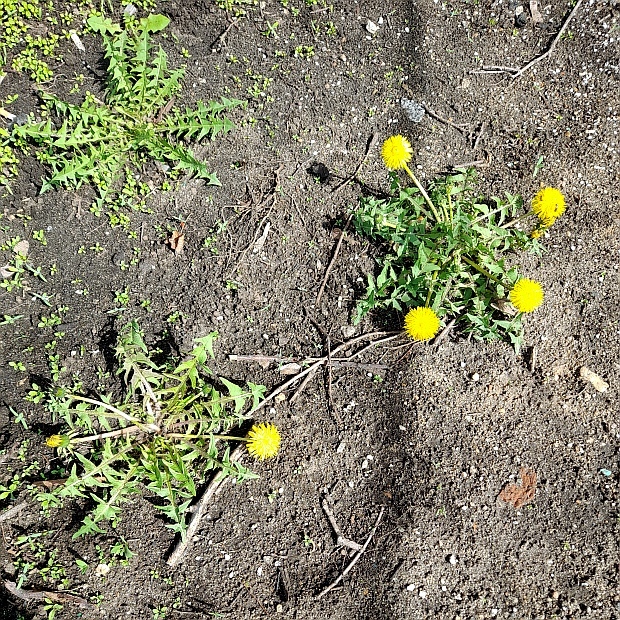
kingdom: Plantae
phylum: Tracheophyta
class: Magnoliopsida
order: Asterales
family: Asteraceae
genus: Taraxacum
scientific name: Taraxacum officinale
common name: Common dandelion
